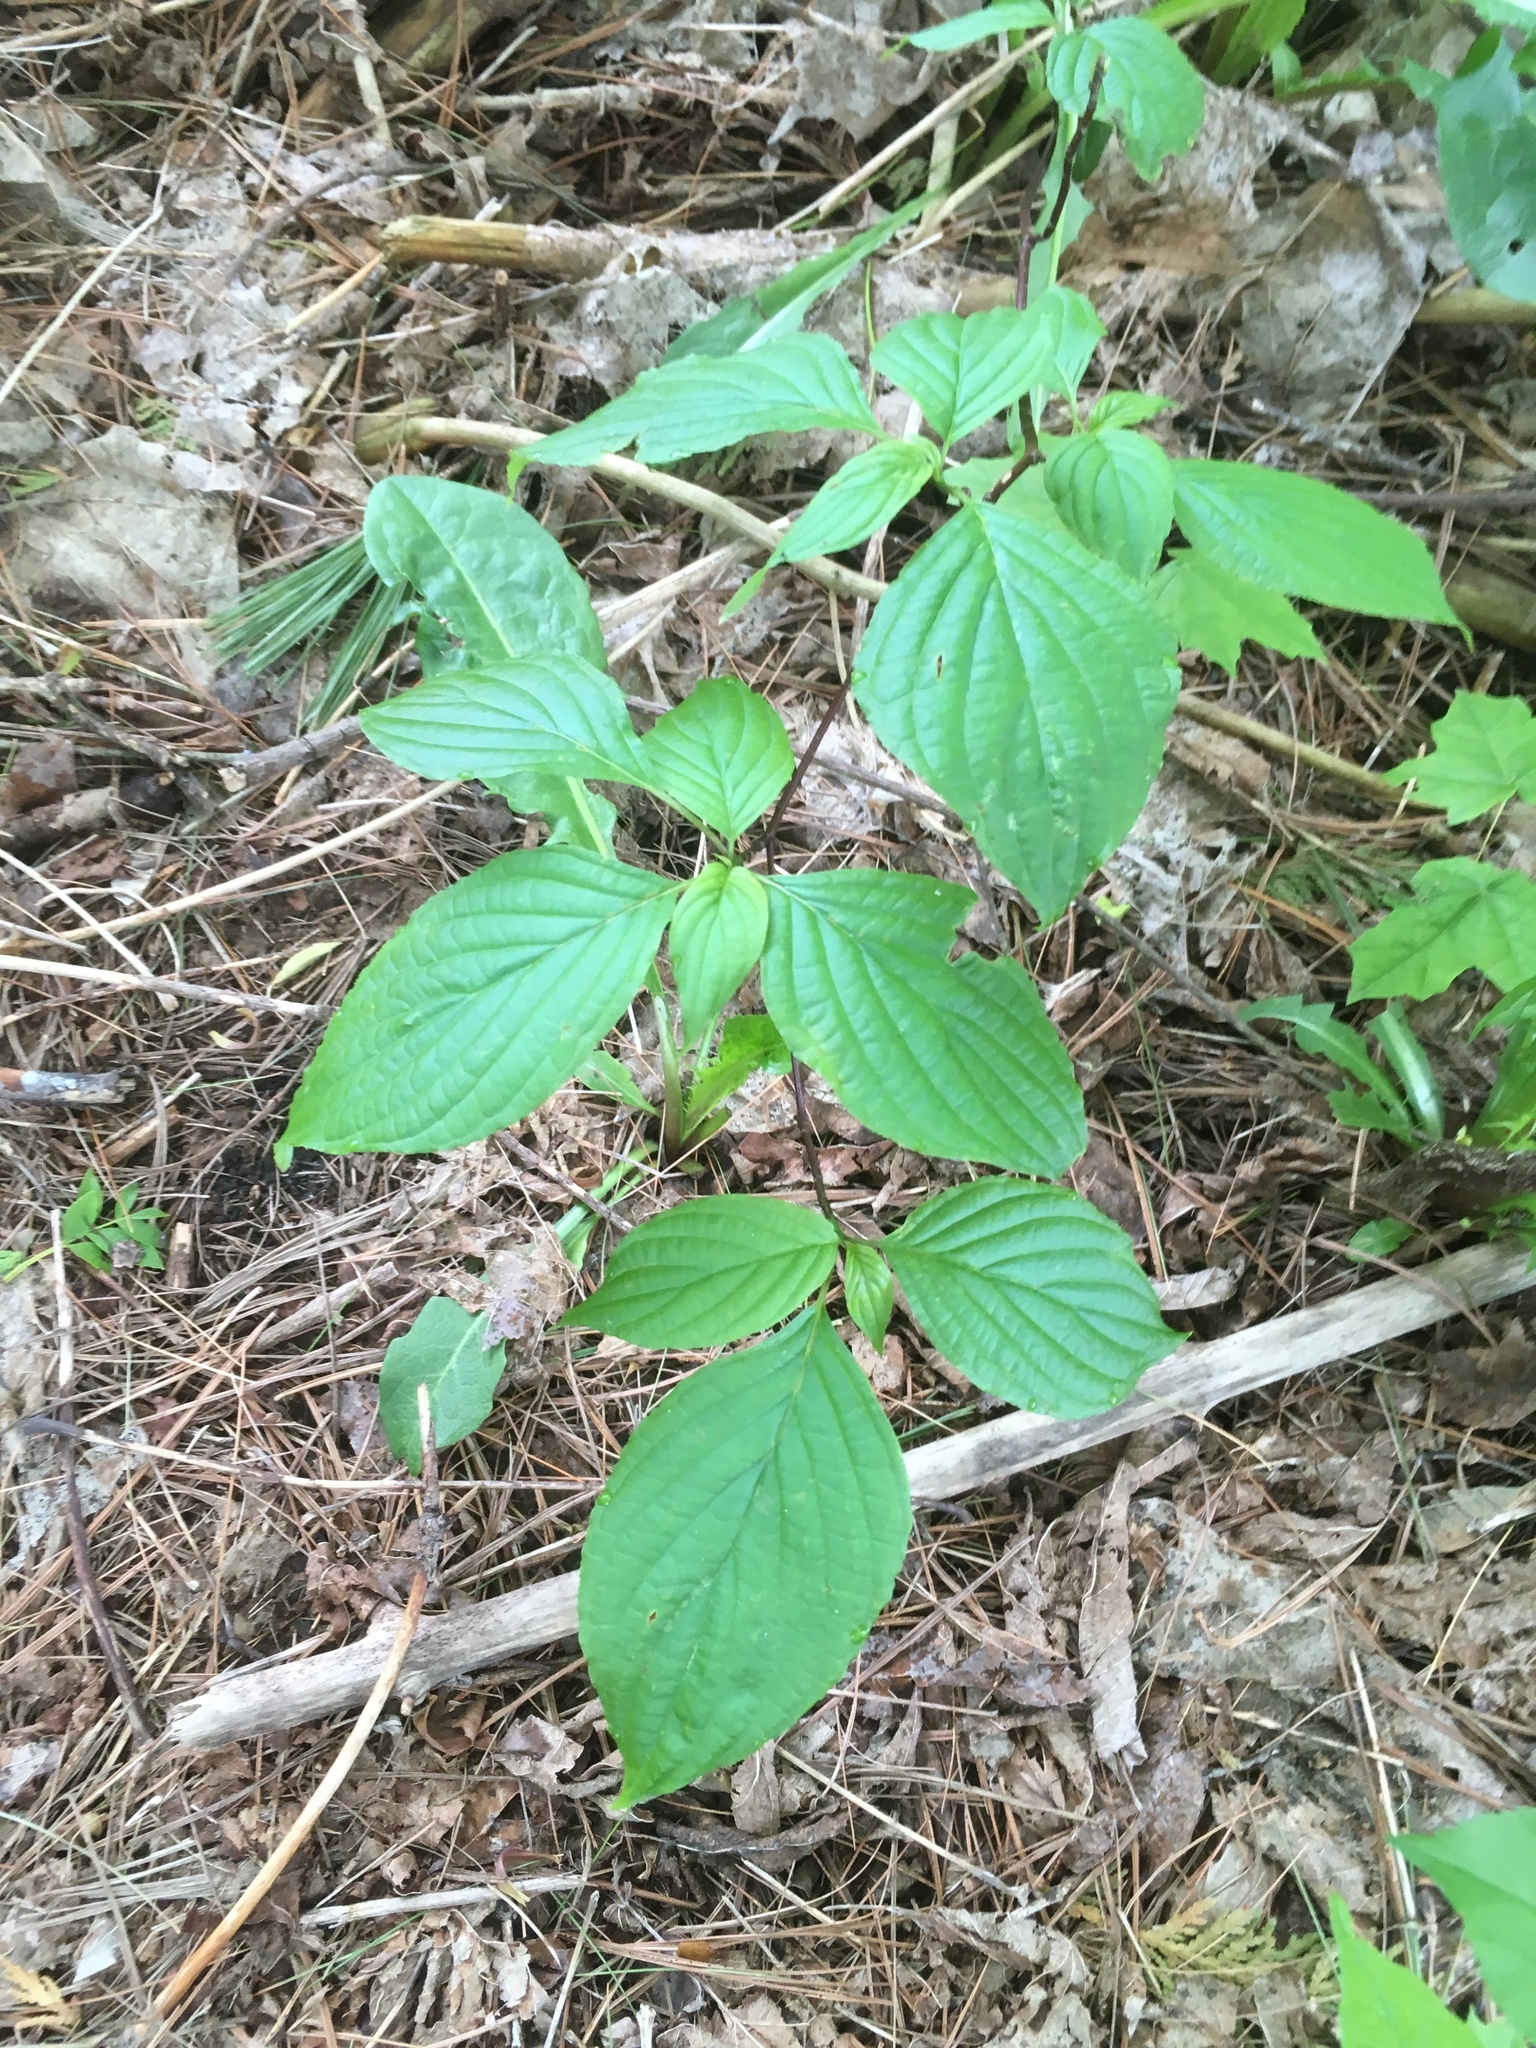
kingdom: Plantae
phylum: Tracheophyta
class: Magnoliopsida
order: Cornales
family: Cornaceae
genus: Cornus
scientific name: Cornus alternifolia
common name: Pagoda dogwood
